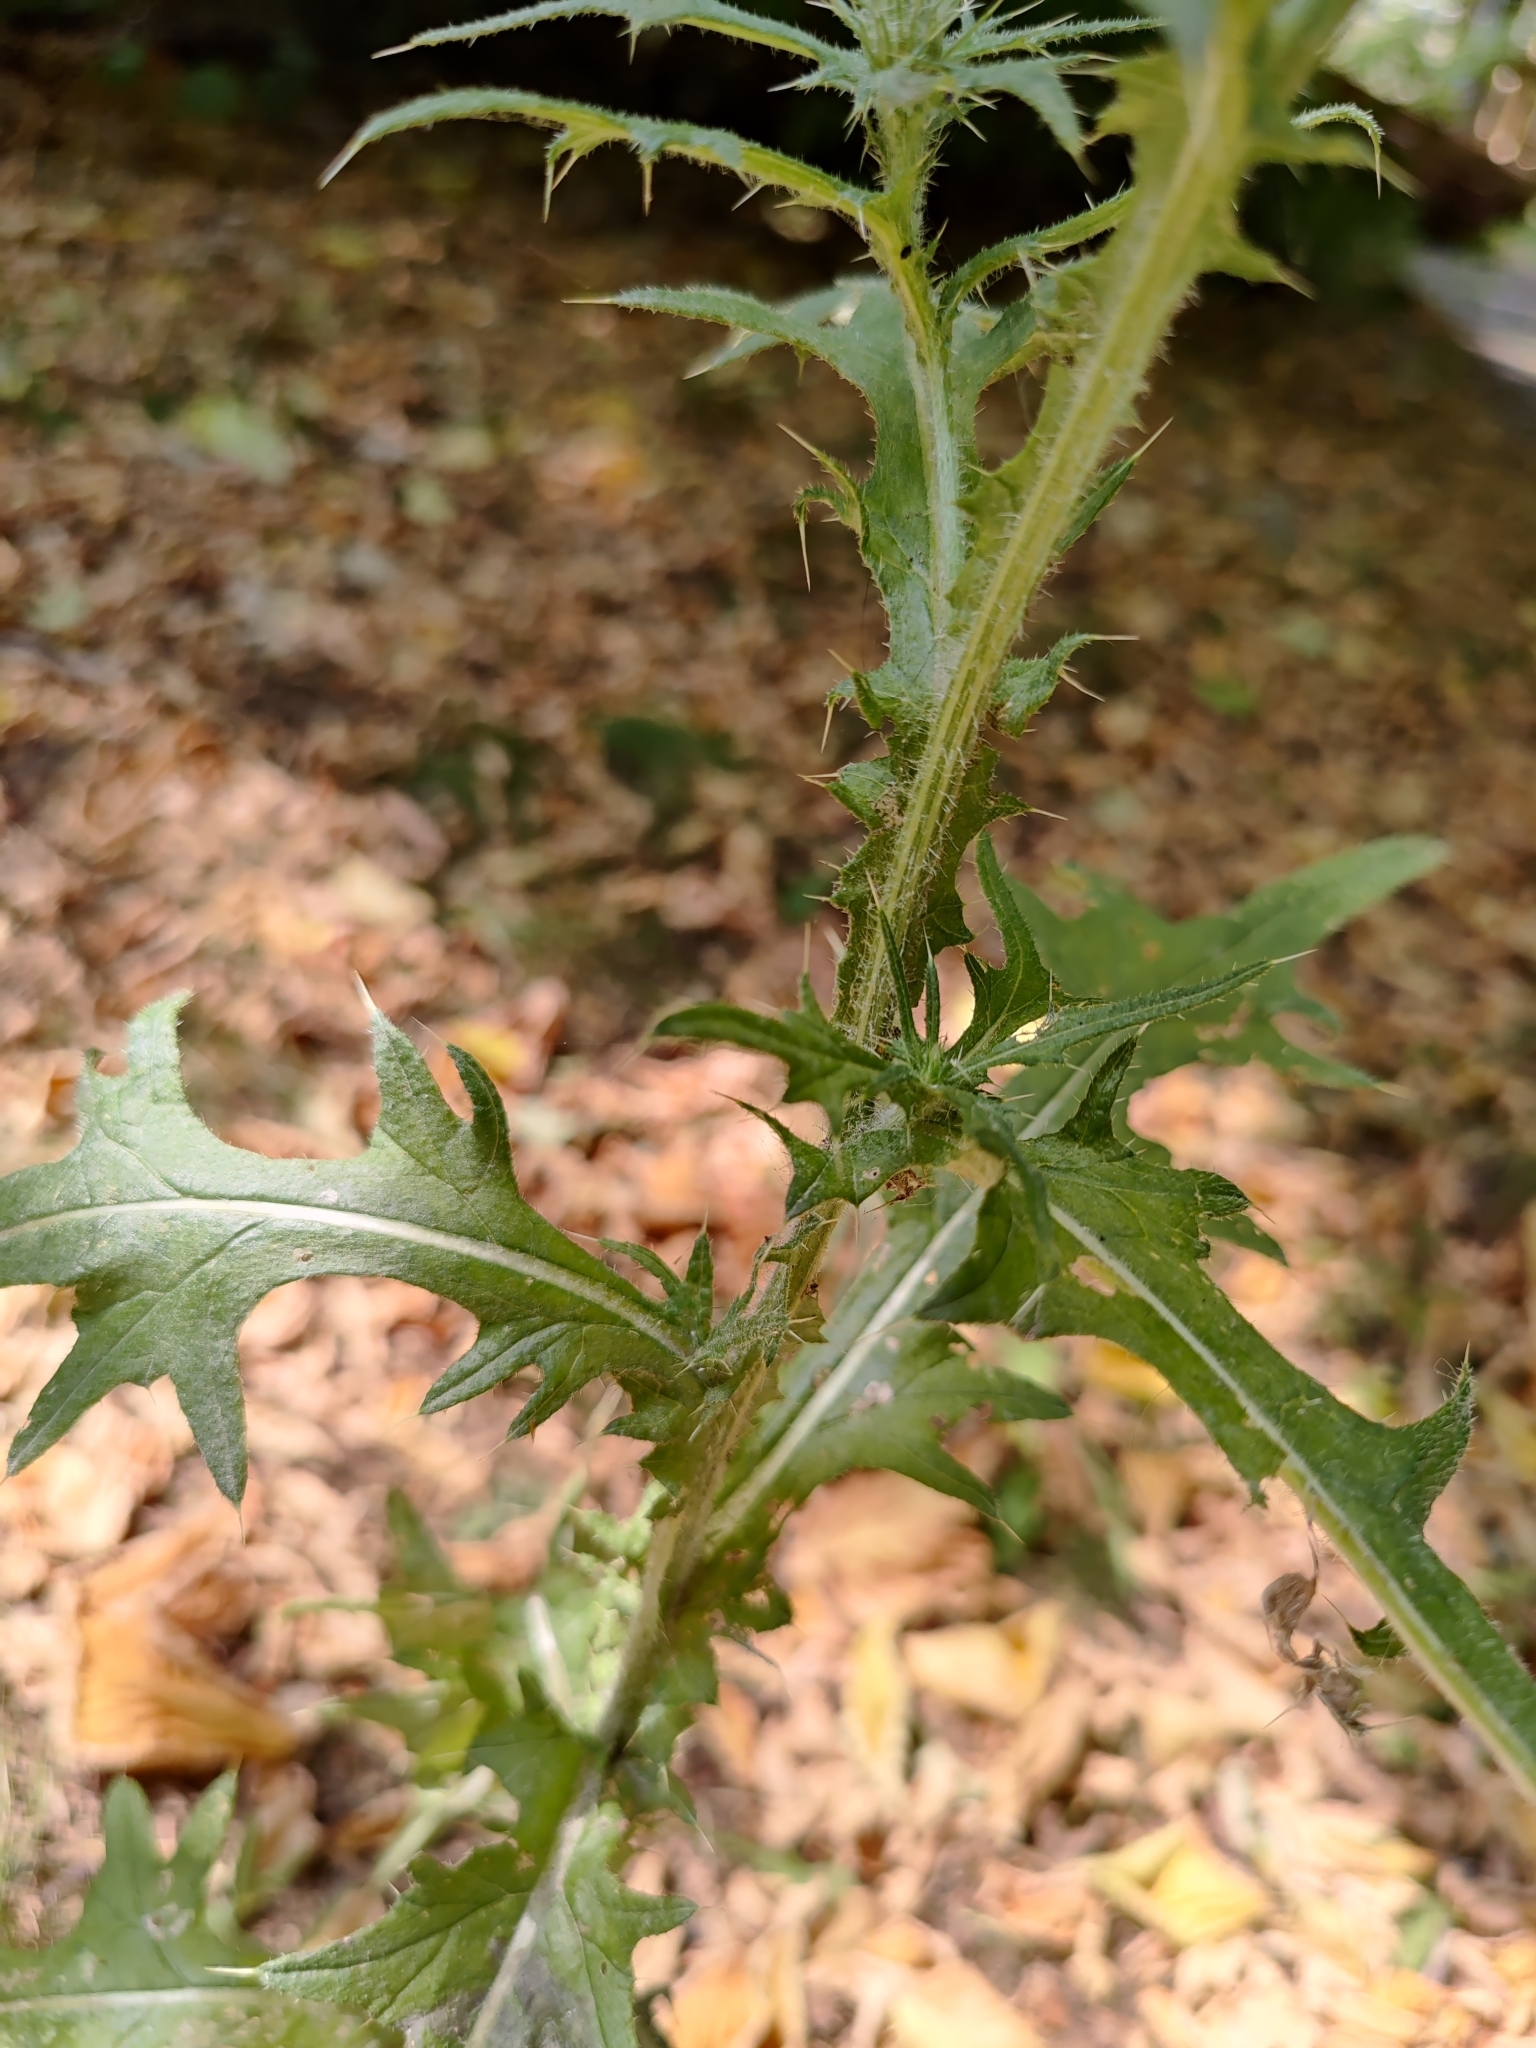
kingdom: Plantae
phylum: Tracheophyta
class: Magnoliopsida
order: Asterales
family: Asteraceae
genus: Cirsium
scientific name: Cirsium vulgare
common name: Bull thistle
